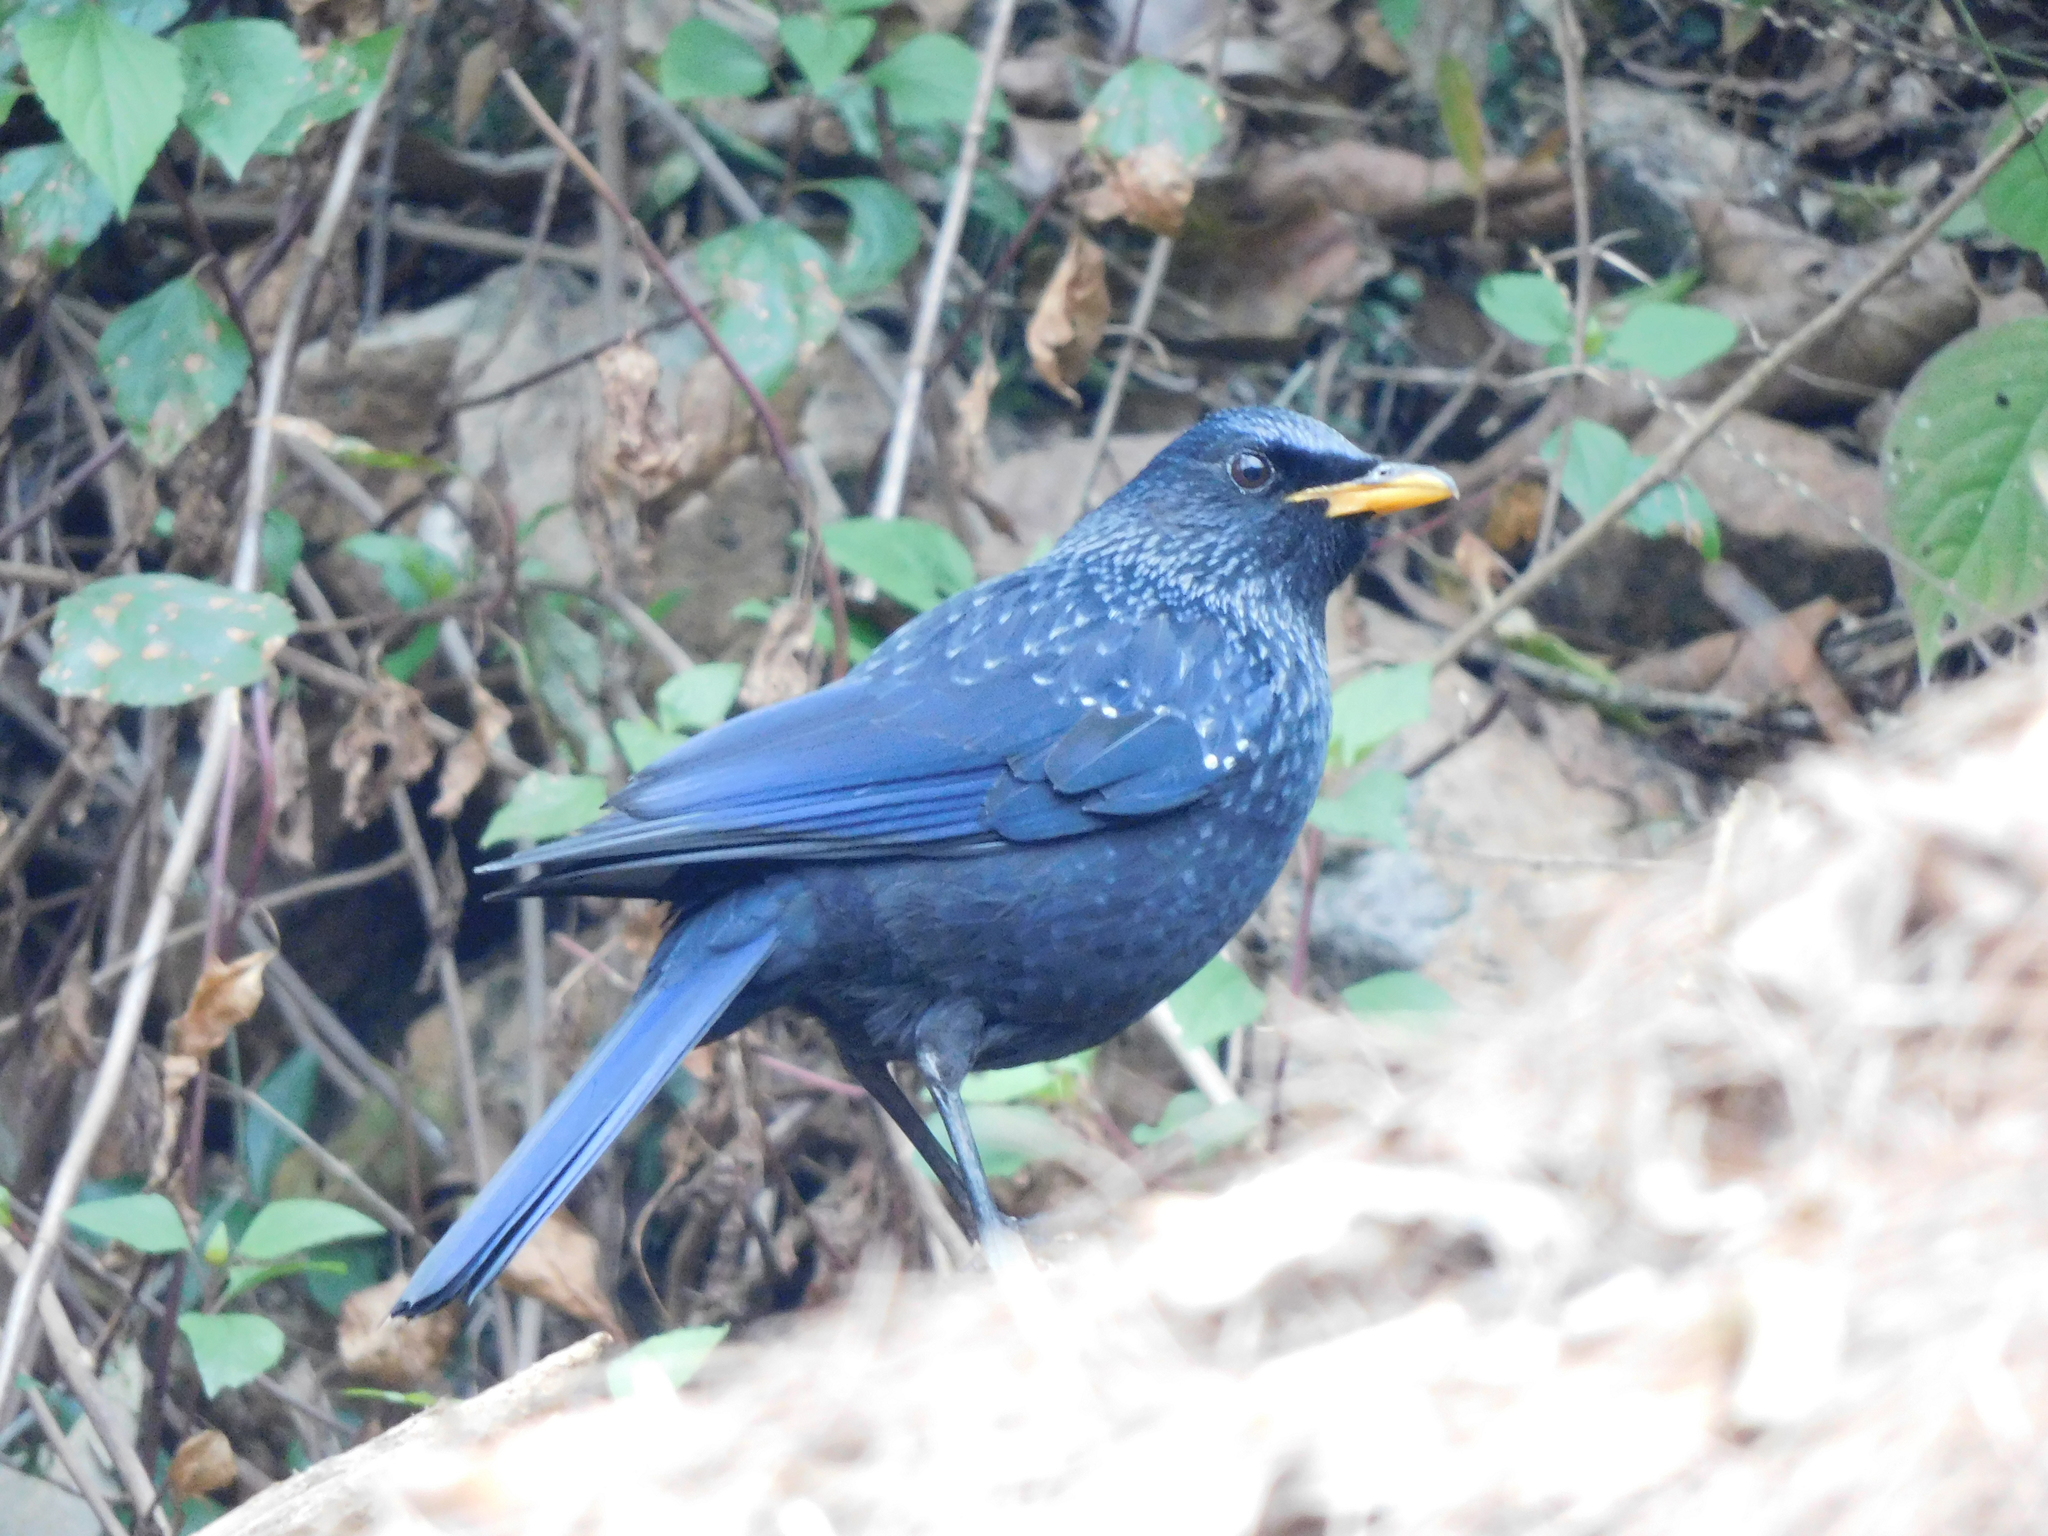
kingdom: Animalia
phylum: Chordata
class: Aves
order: Passeriformes
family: Muscicapidae
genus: Myophonus
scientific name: Myophonus caeruleus
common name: Blue whistling-thrush
